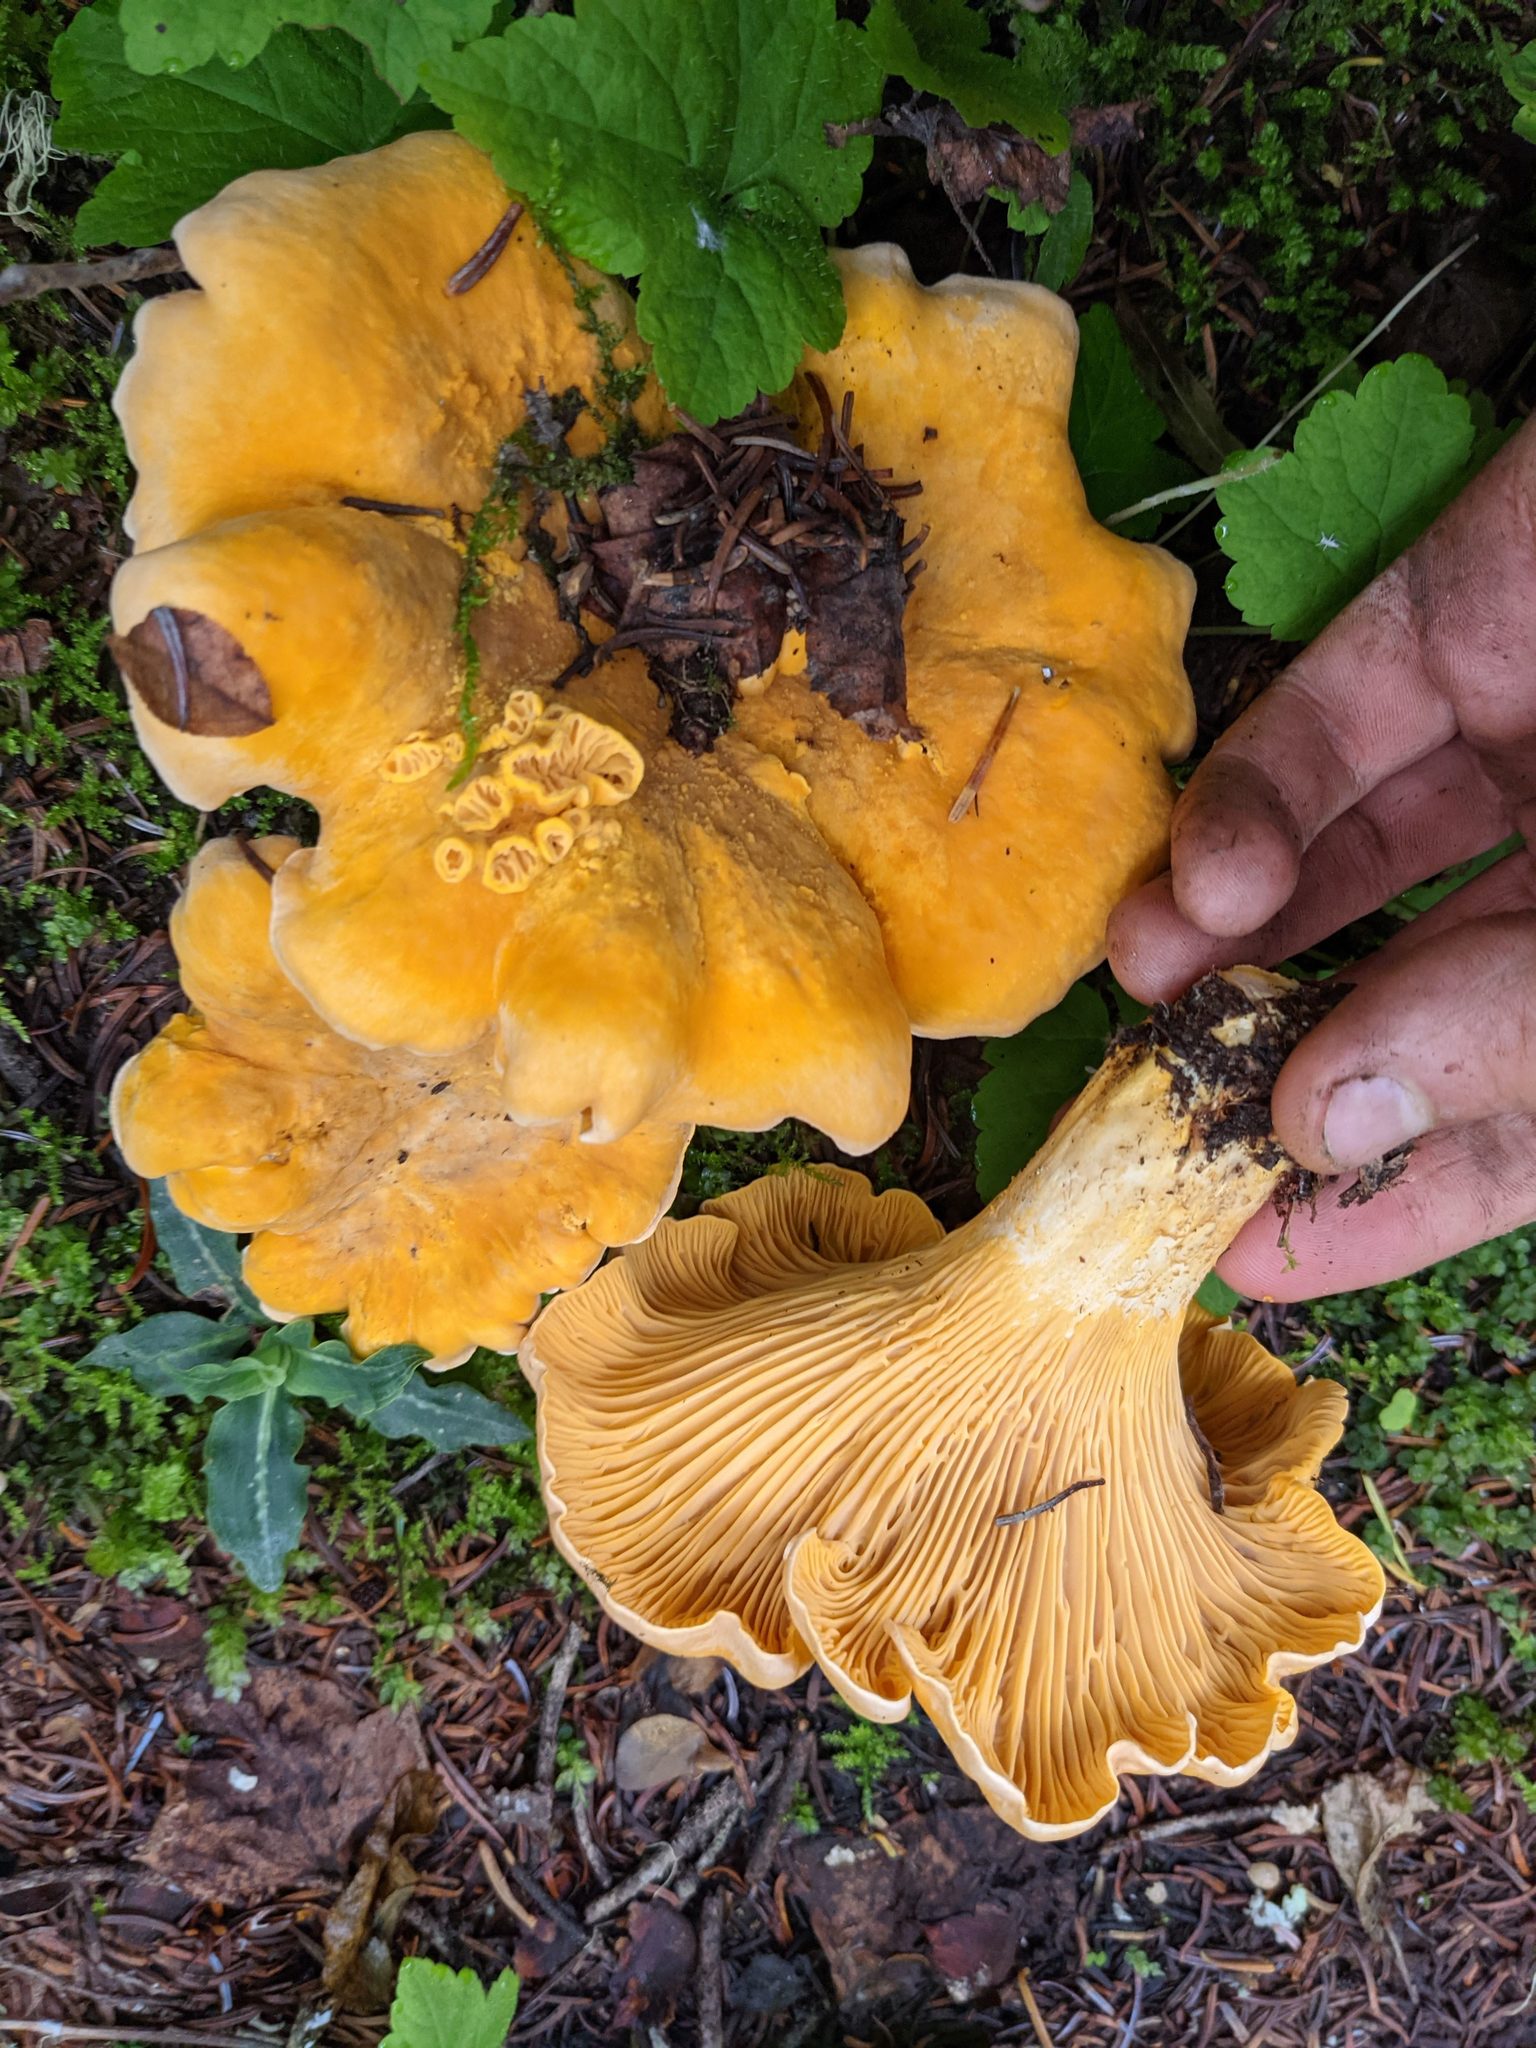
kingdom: Fungi
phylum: Basidiomycota
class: Agaricomycetes
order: Cantharellales
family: Hydnaceae
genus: Cantharellus
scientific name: Cantharellus formosus
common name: Pacific golden chanterelle
